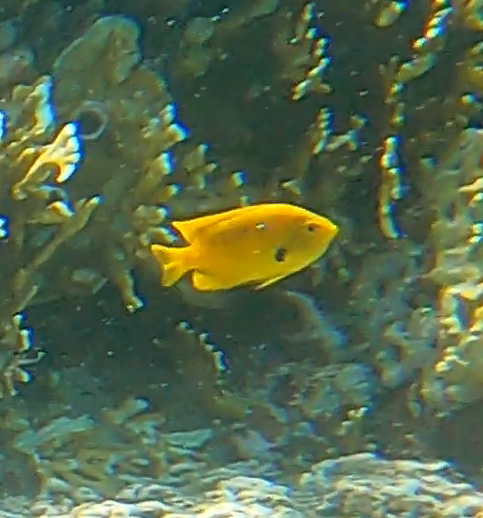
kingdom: Animalia
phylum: Chordata
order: Perciformes
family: Pomacentridae
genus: Pomacentrus
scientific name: Pomacentrus sulfureus
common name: Sulfur damsel
